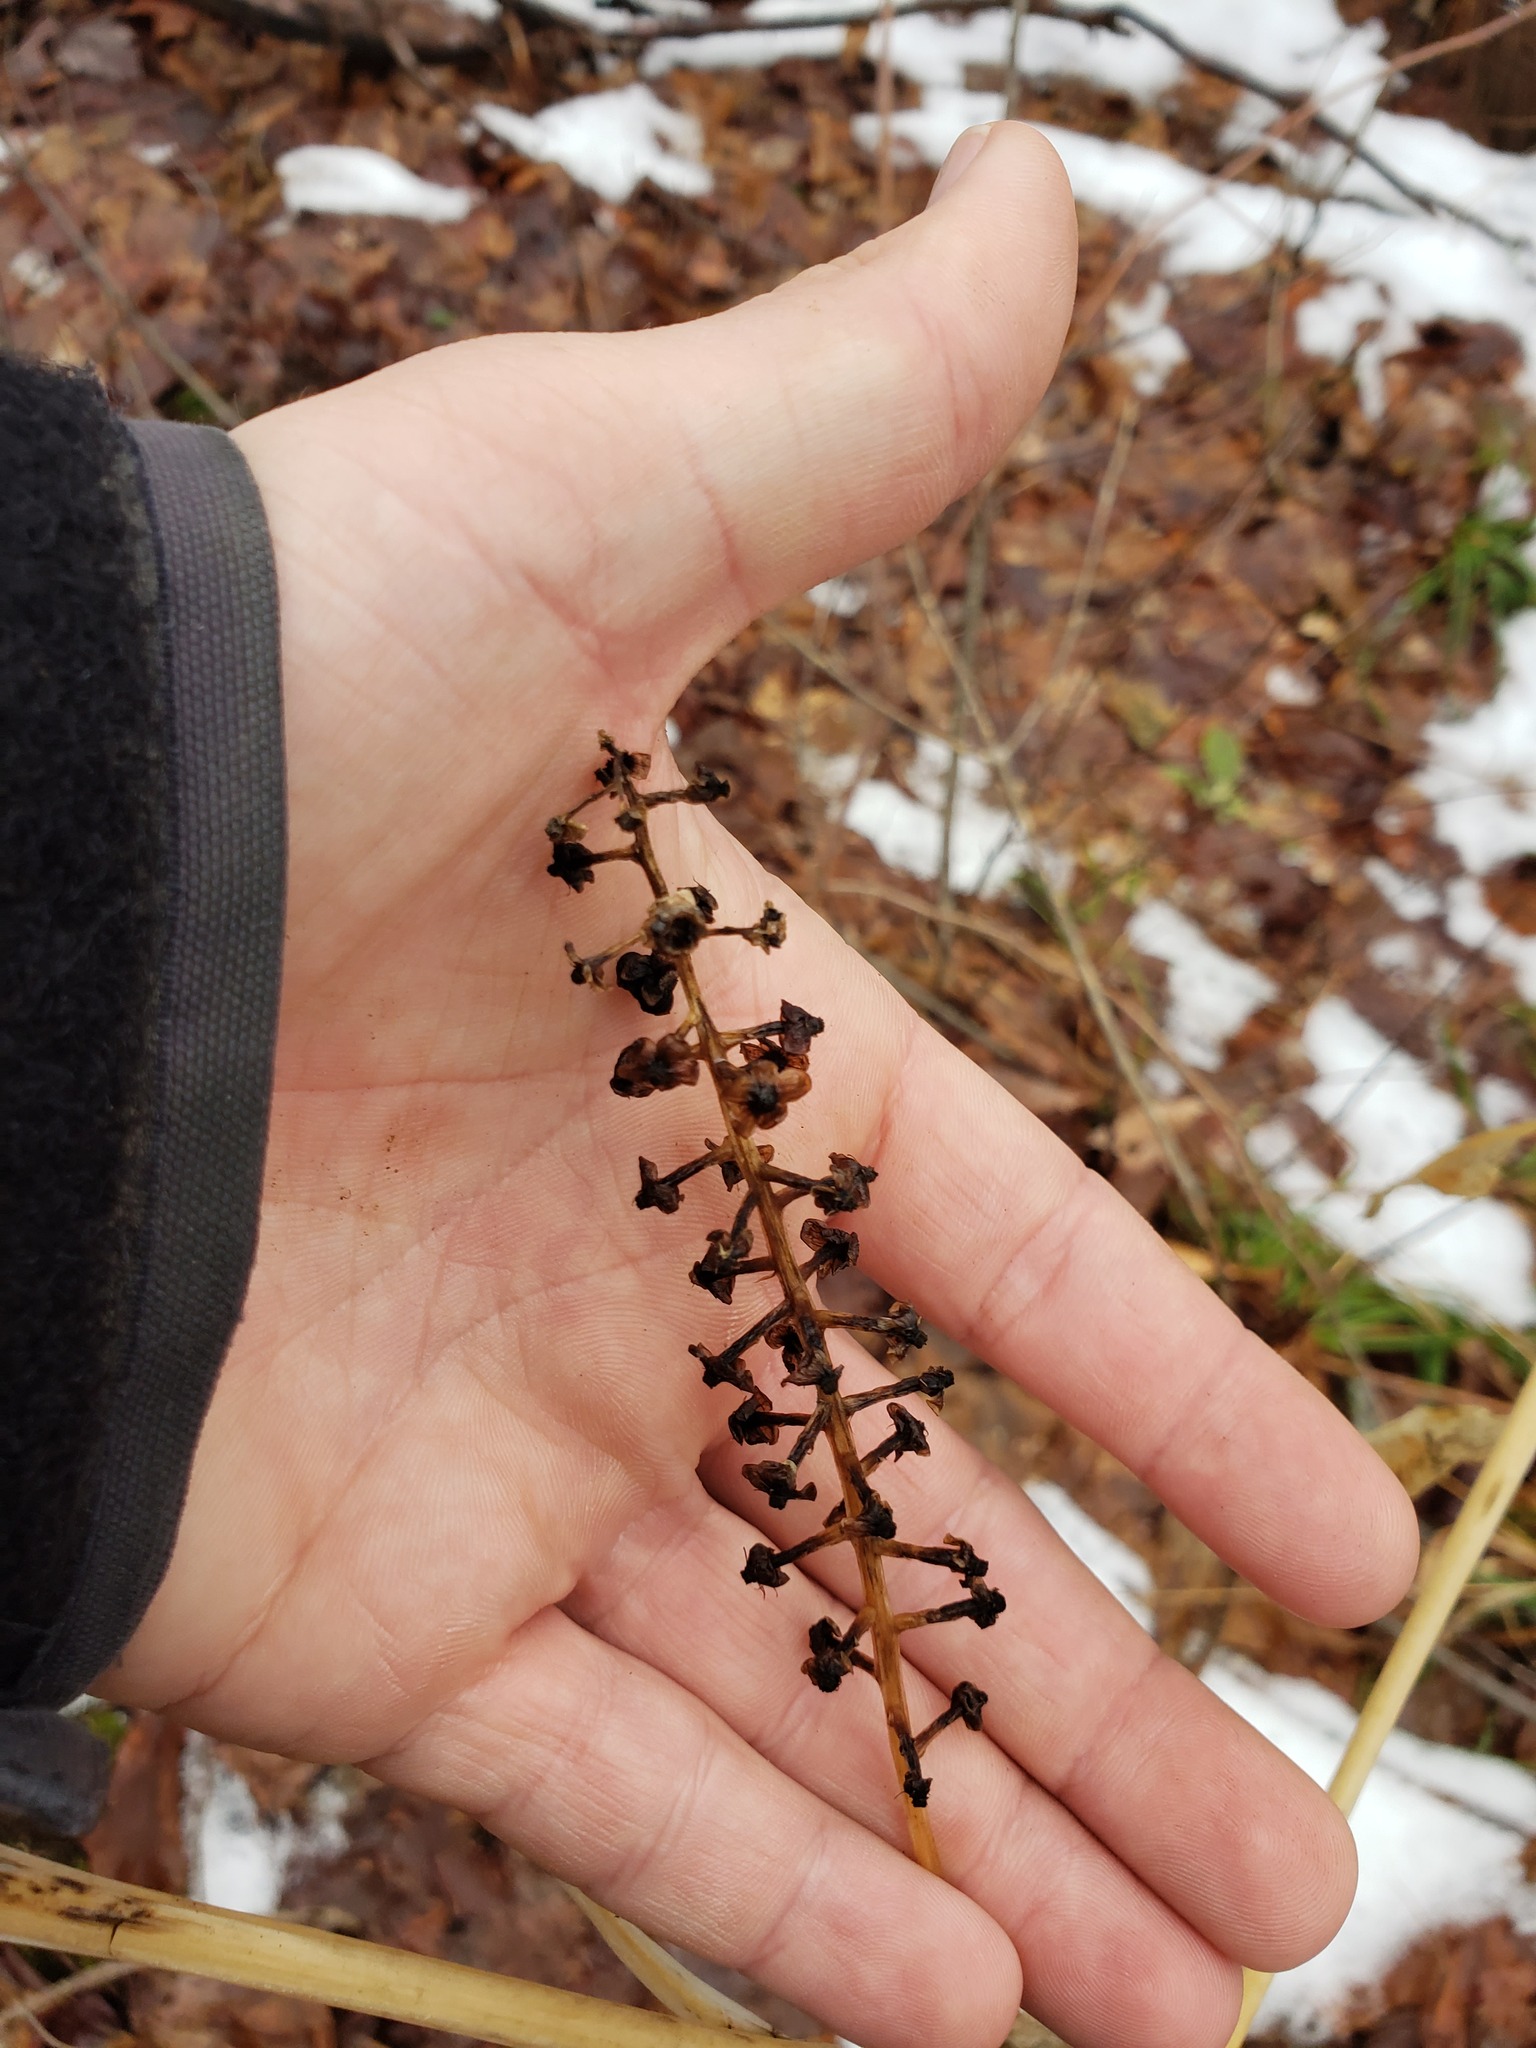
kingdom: Plantae
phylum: Tracheophyta
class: Magnoliopsida
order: Caryophyllales
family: Phytolaccaceae
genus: Phytolacca
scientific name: Phytolacca americana
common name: American pokeweed
